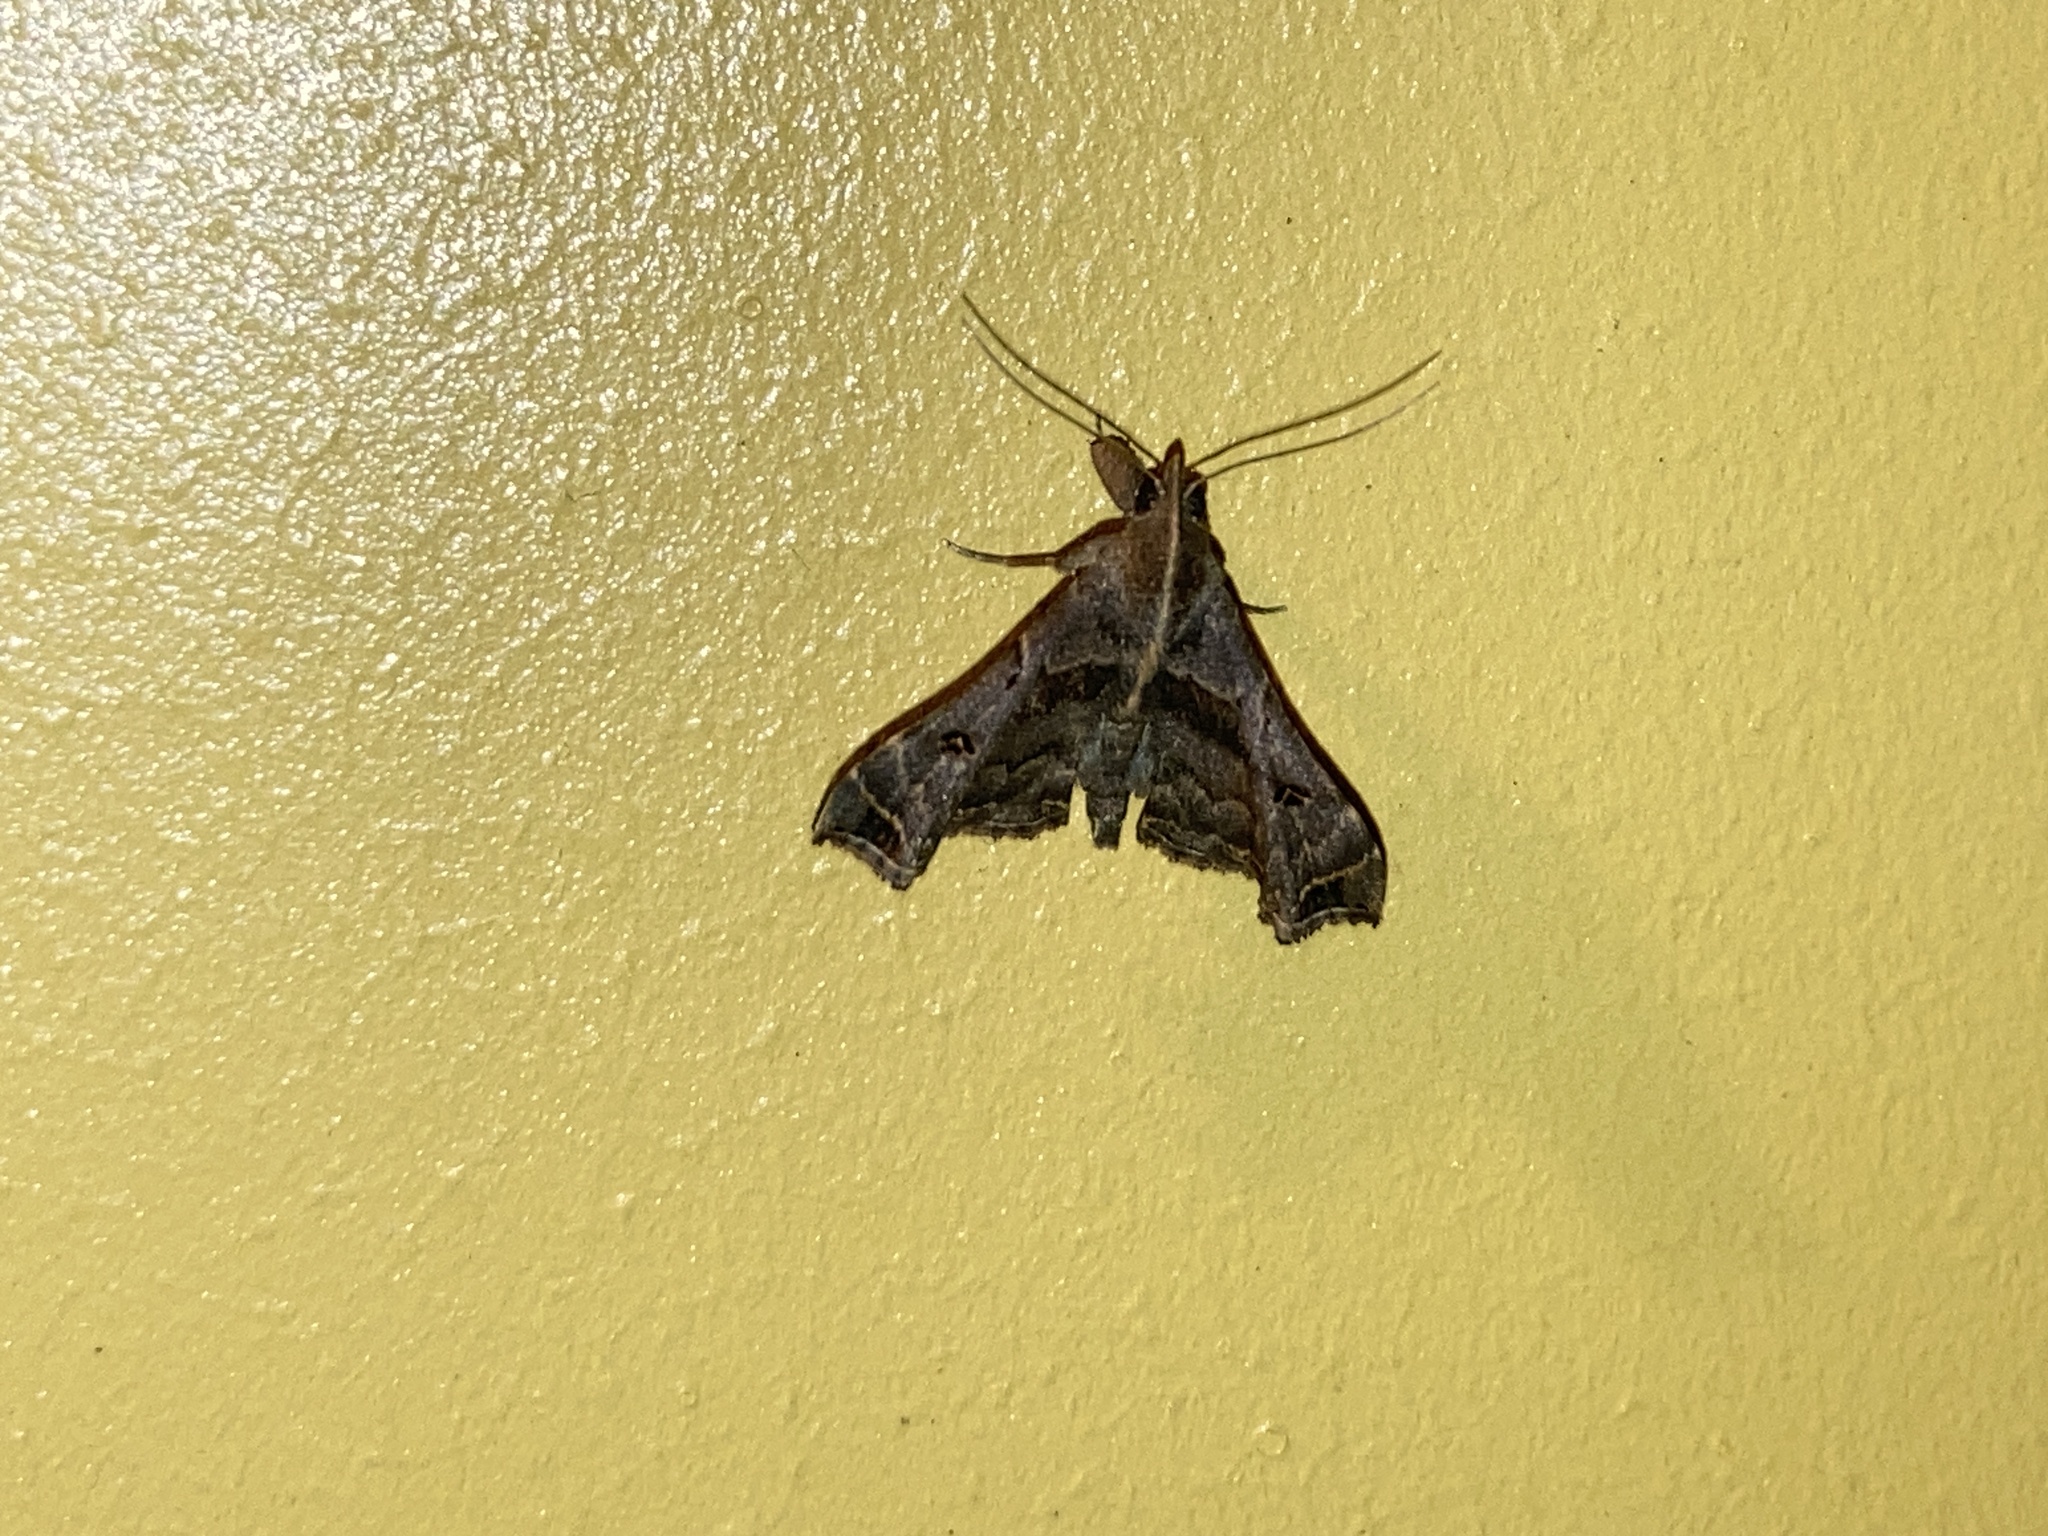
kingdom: Animalia
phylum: Arthropoda
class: Insecta
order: Lepidoptera
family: Erebidae
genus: Palthis
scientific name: Palthis asopialis
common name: Faint-spotted palthis moth
